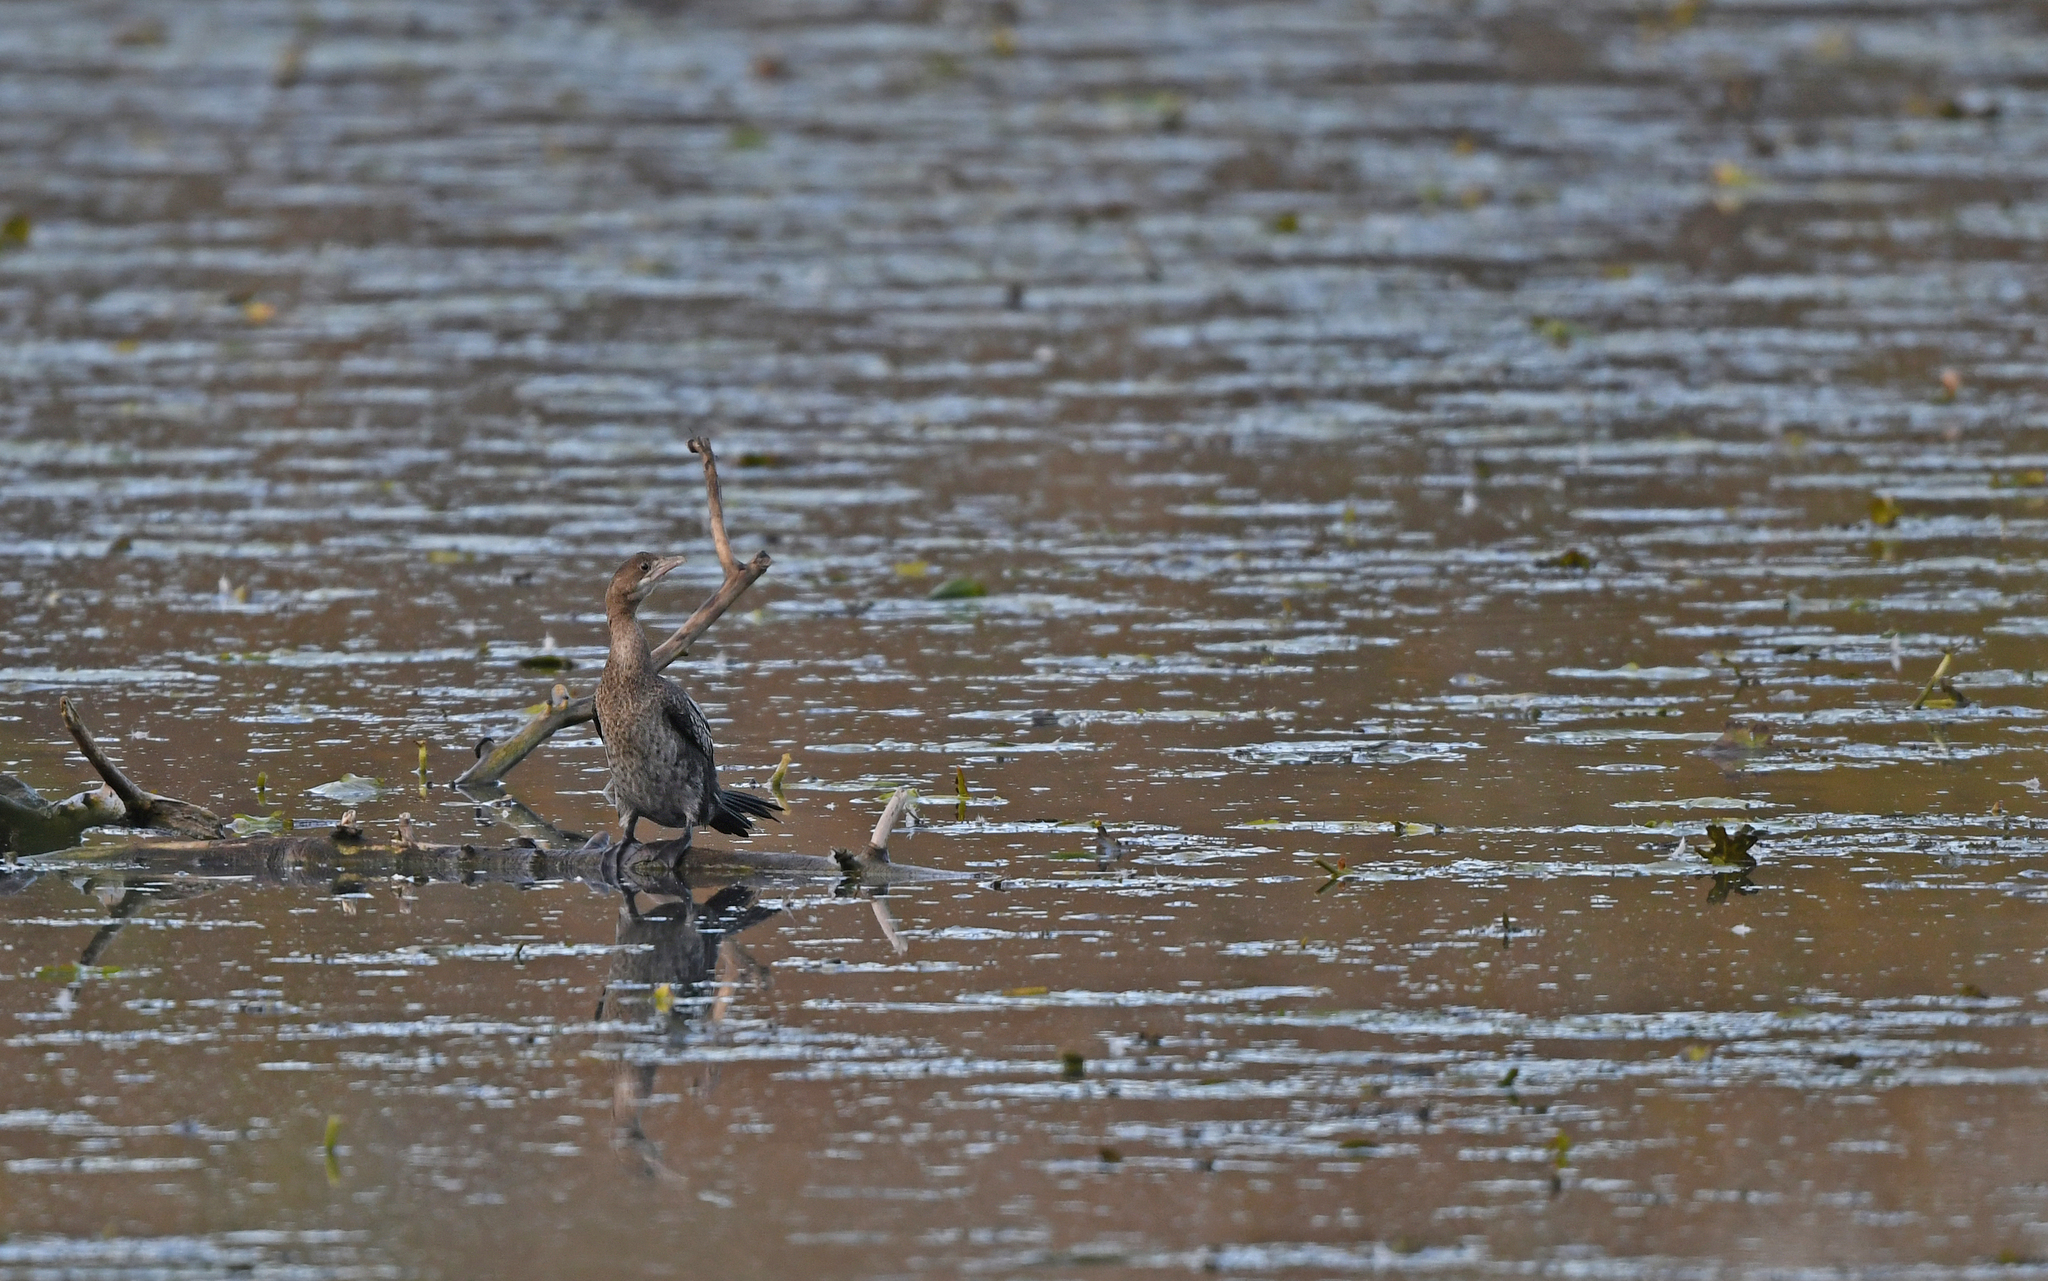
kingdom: Animalia
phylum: Chordata
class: Aves
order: Suliformes
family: Phalacrocoracidae
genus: Microcarbo
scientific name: Microcarbo pygmaeus
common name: Pygmy cormorant
